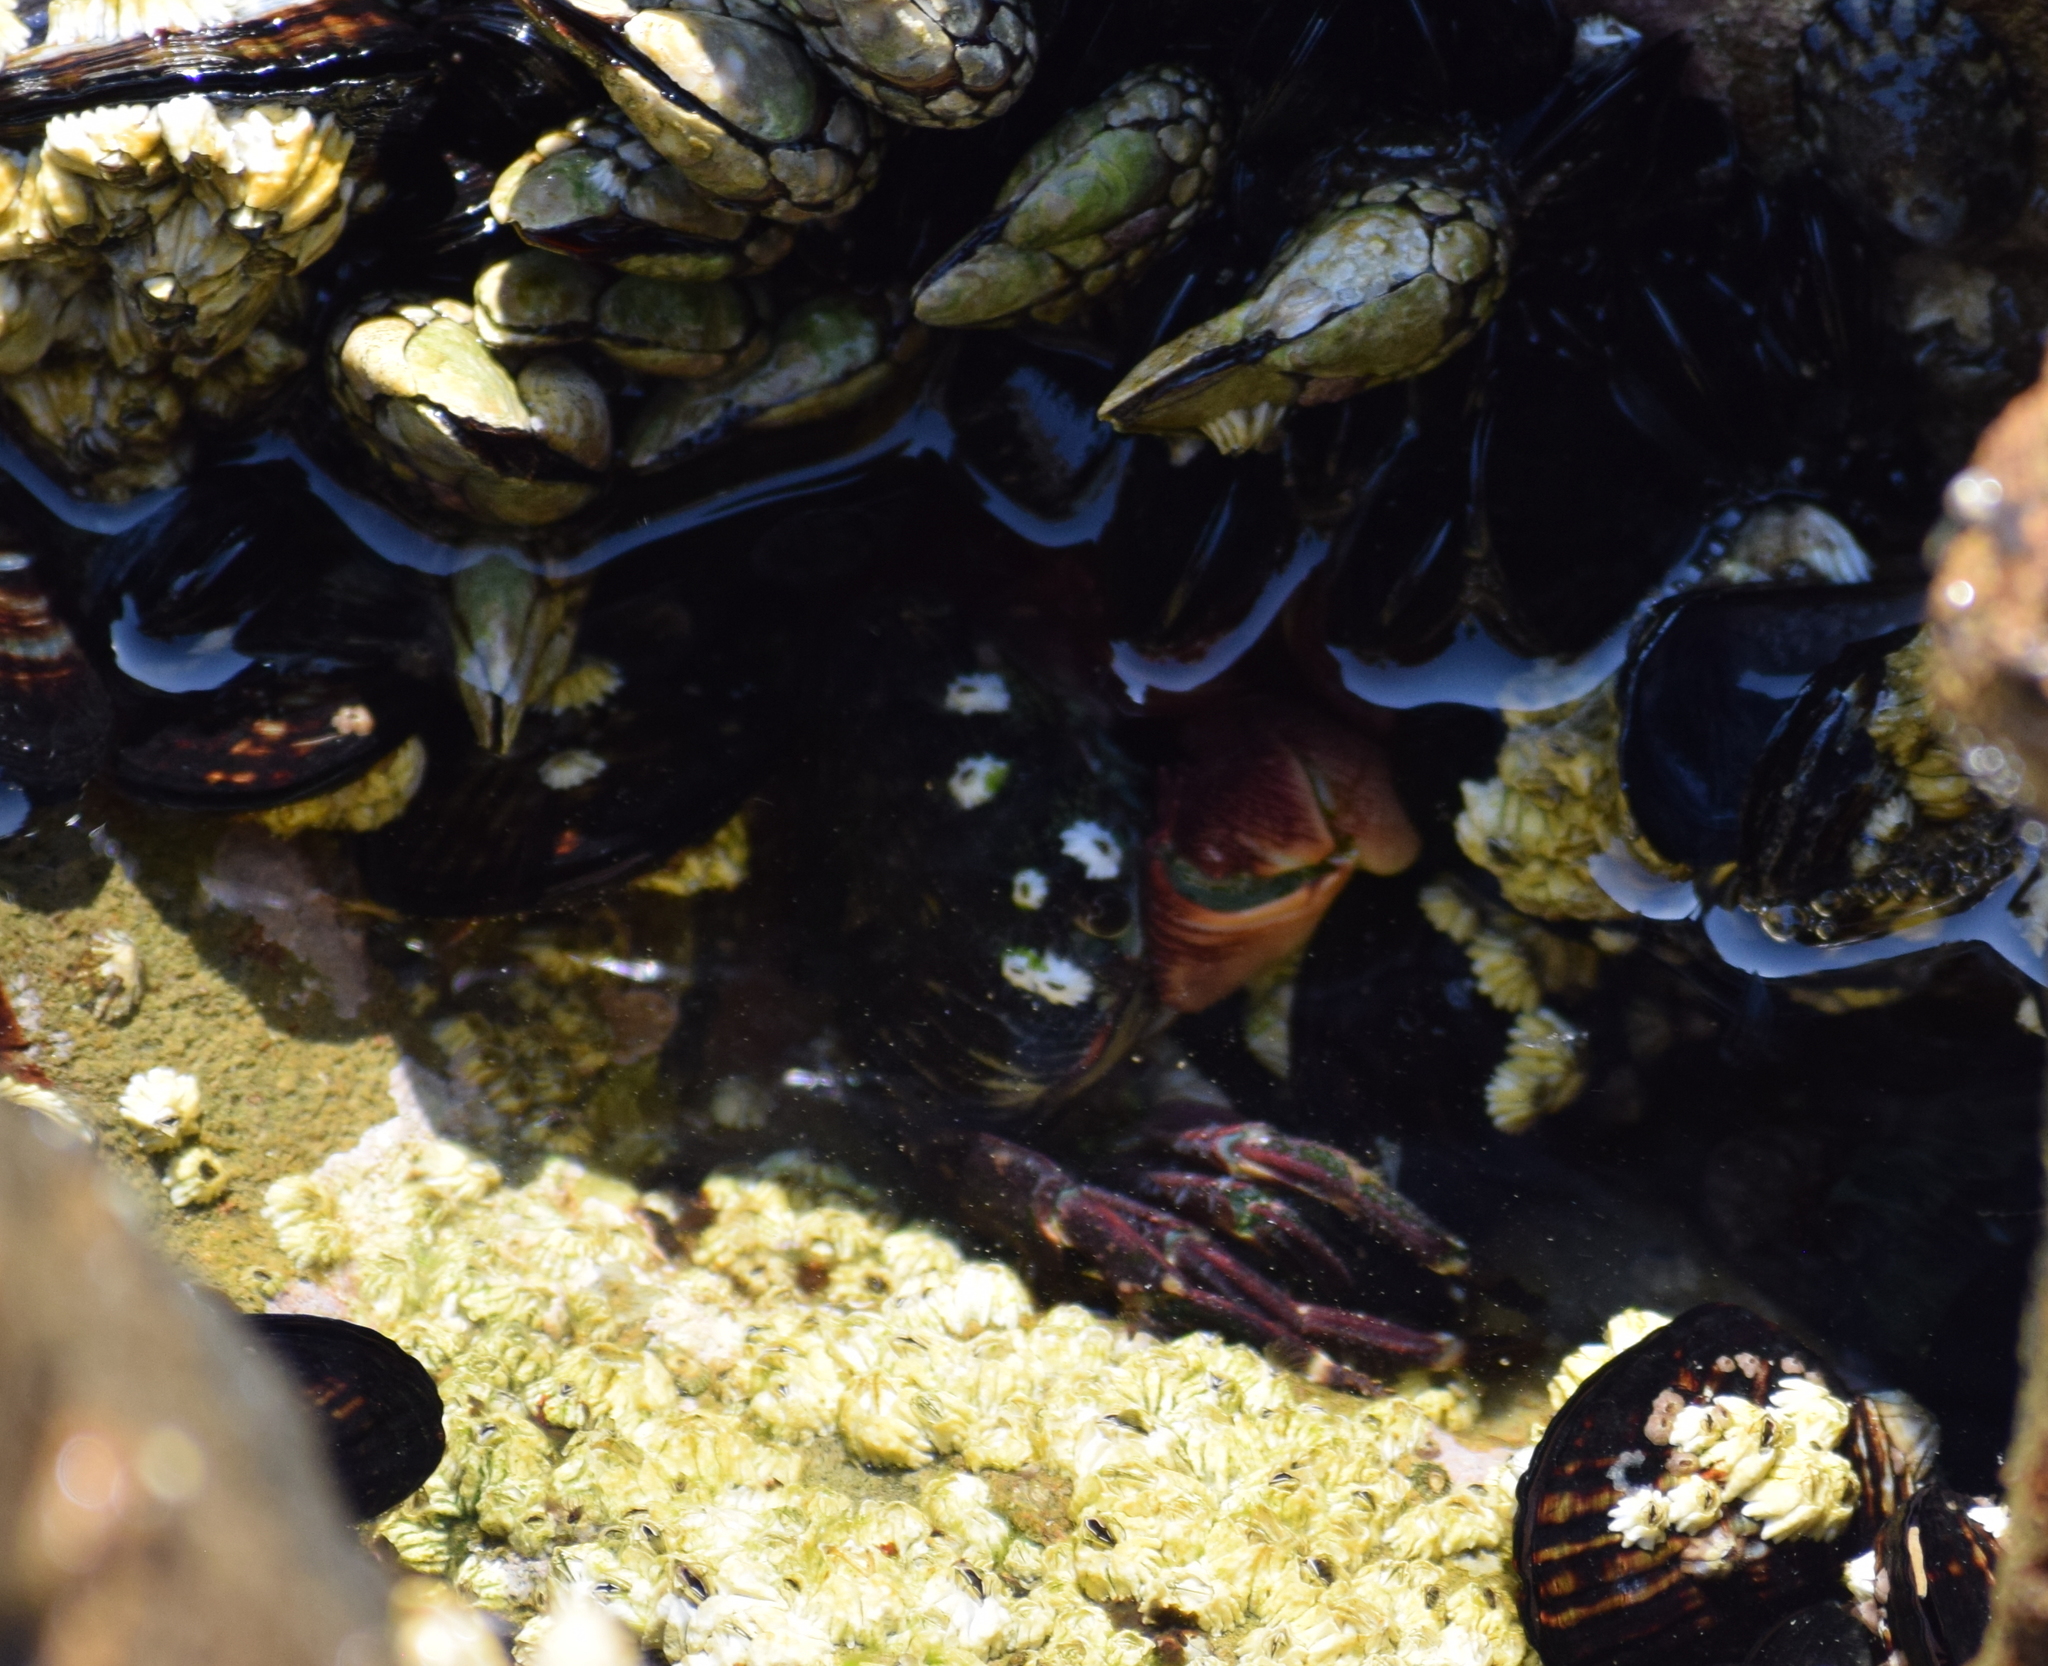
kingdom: Animalia
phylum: Arthropoda
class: Malacostraca
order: Decapoda
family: Grapsidae
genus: Pachygrapsus
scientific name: Pachygrapsus crassipes
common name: Striped shore crab
